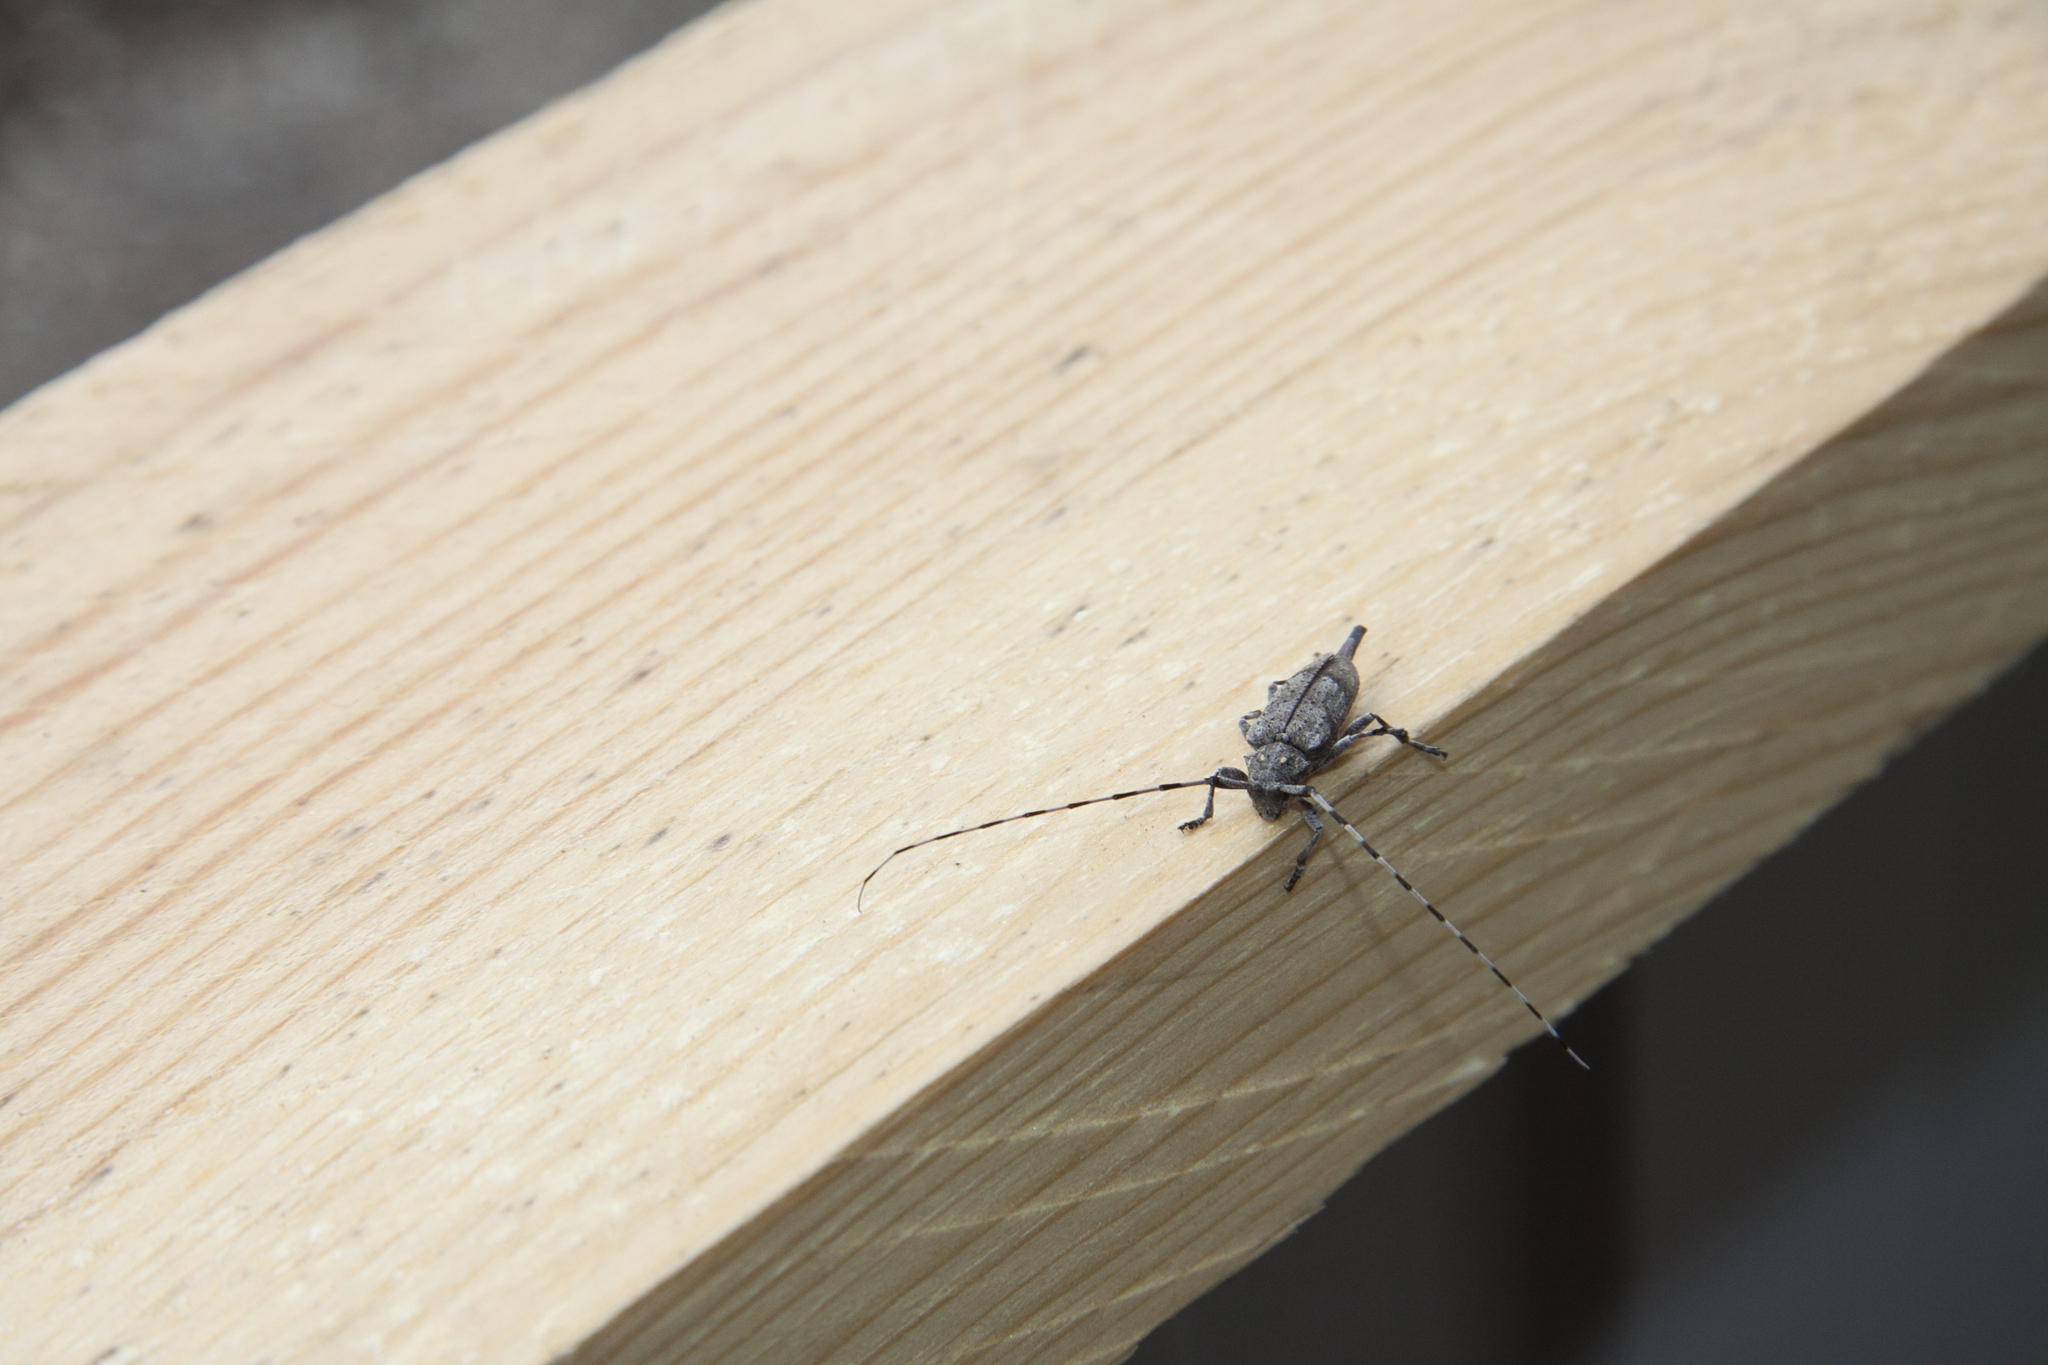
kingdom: Animalia
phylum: Arthropoda
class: Insecta
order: Coleoptera
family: Cerambycidae
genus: Acanthocinus
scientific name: Acanthocinus aedilis
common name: Timberman beetle
